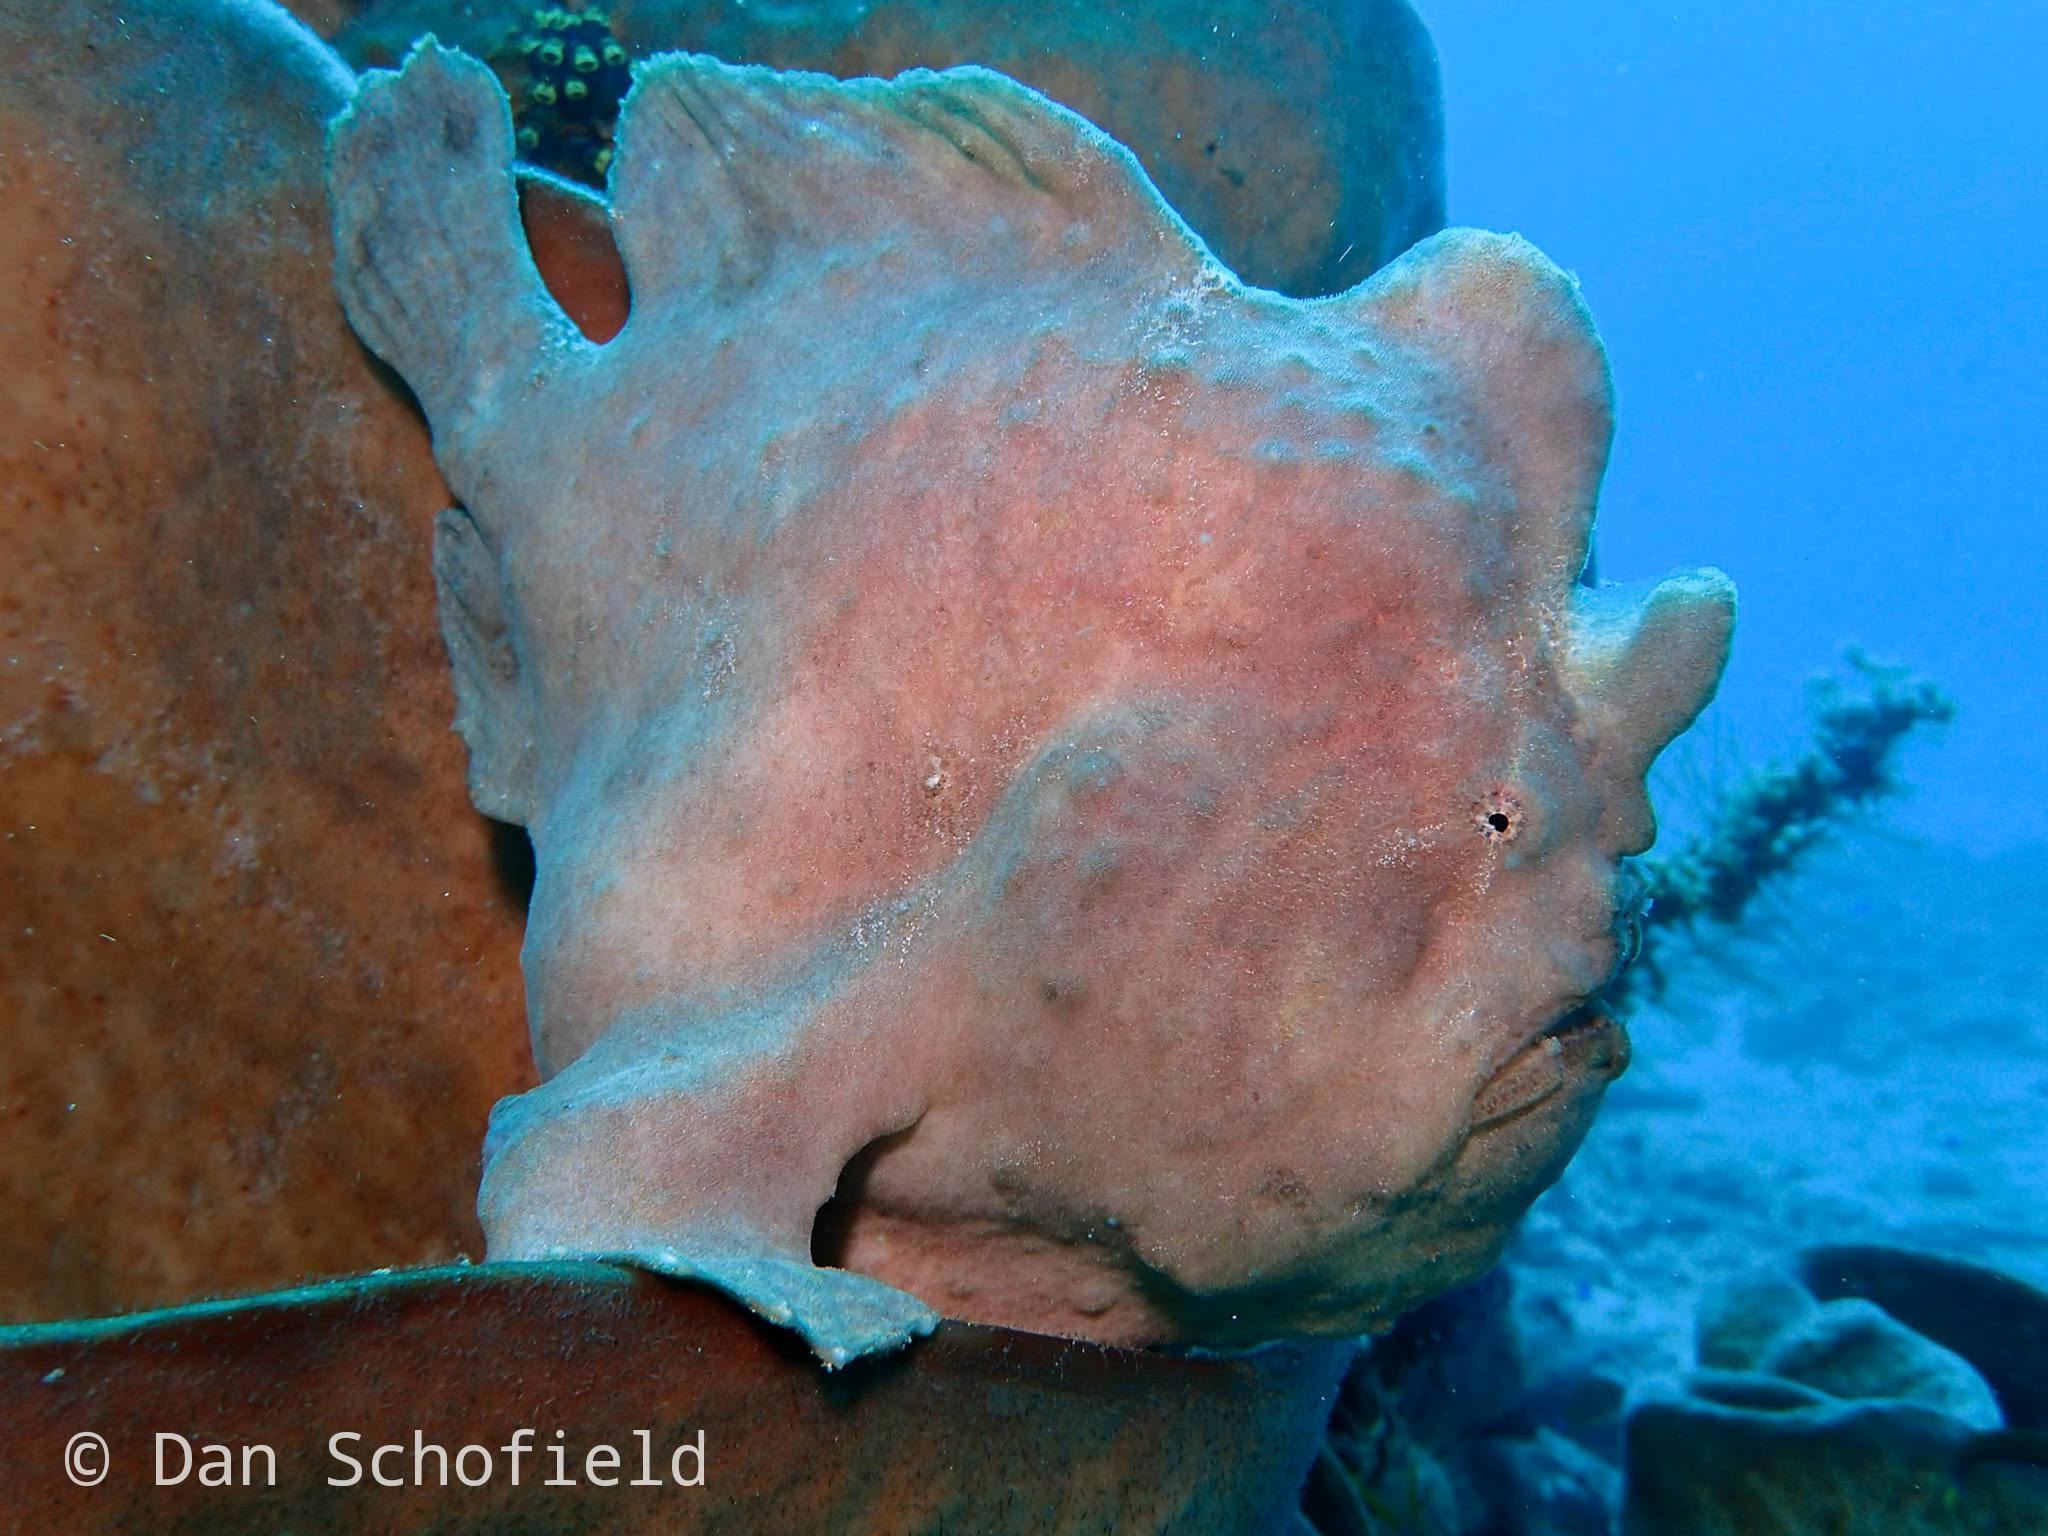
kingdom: Animalia
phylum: Chordata
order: Lophiiformes
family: Antennariidae
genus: Antennarius
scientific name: Antennarius commerson
